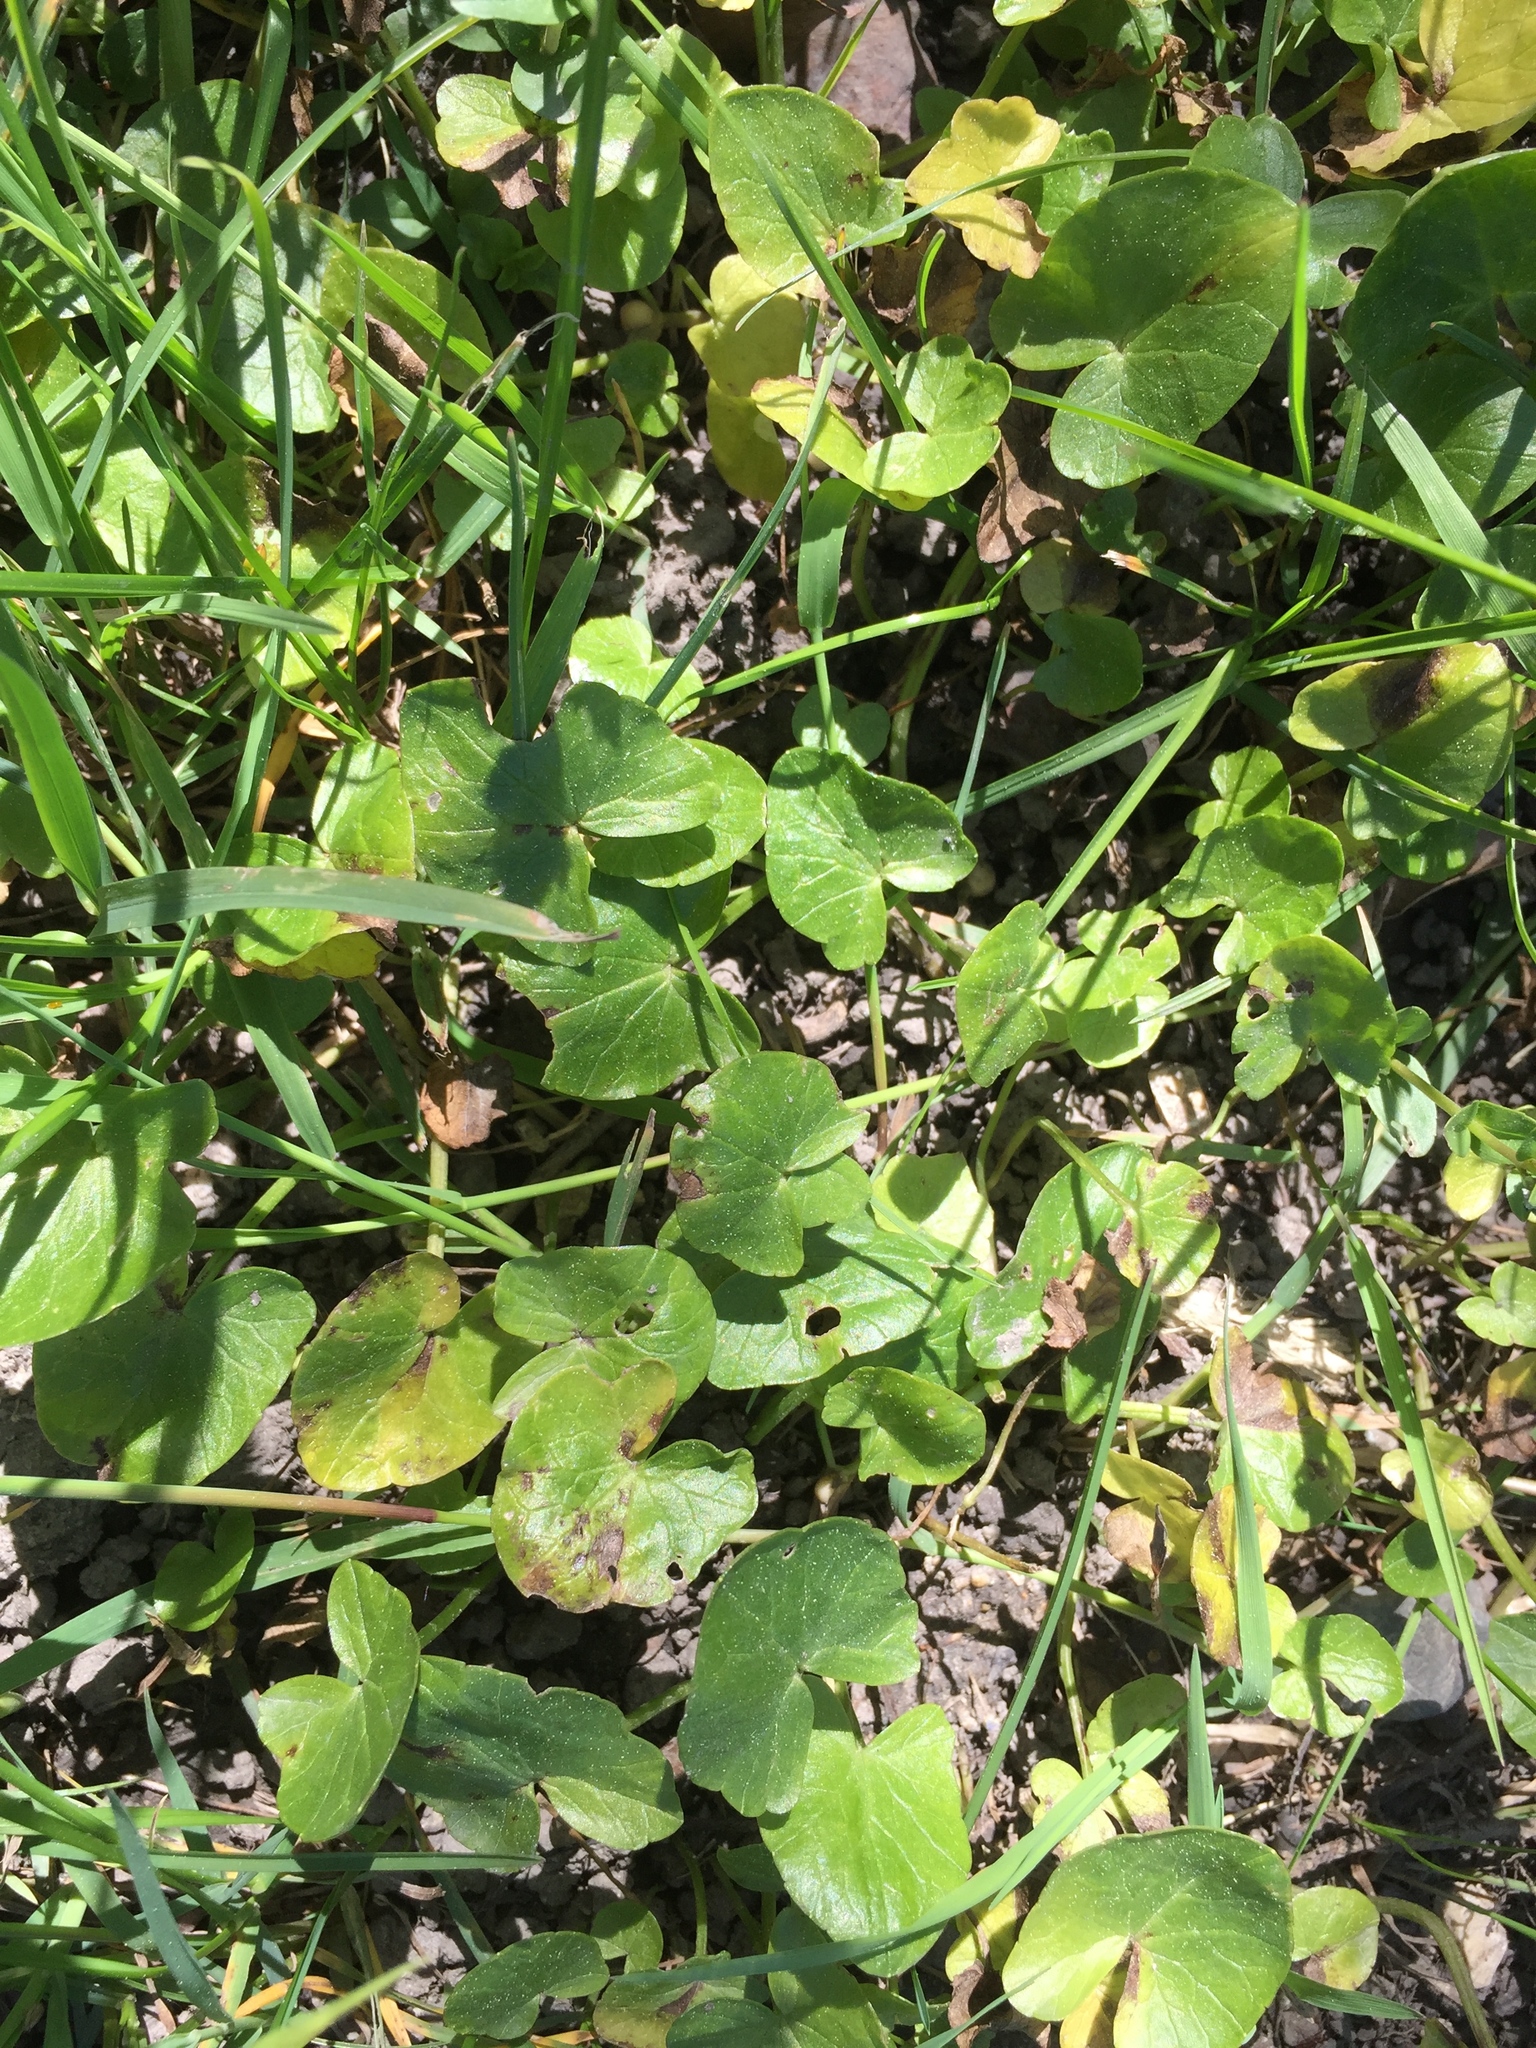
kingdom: Plantae
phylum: Tracheophyta
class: Magnoliopsida
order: Ranunculales
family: Ranunculaceae
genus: Ficaria
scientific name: Ficaria verna
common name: Lesser celandine
